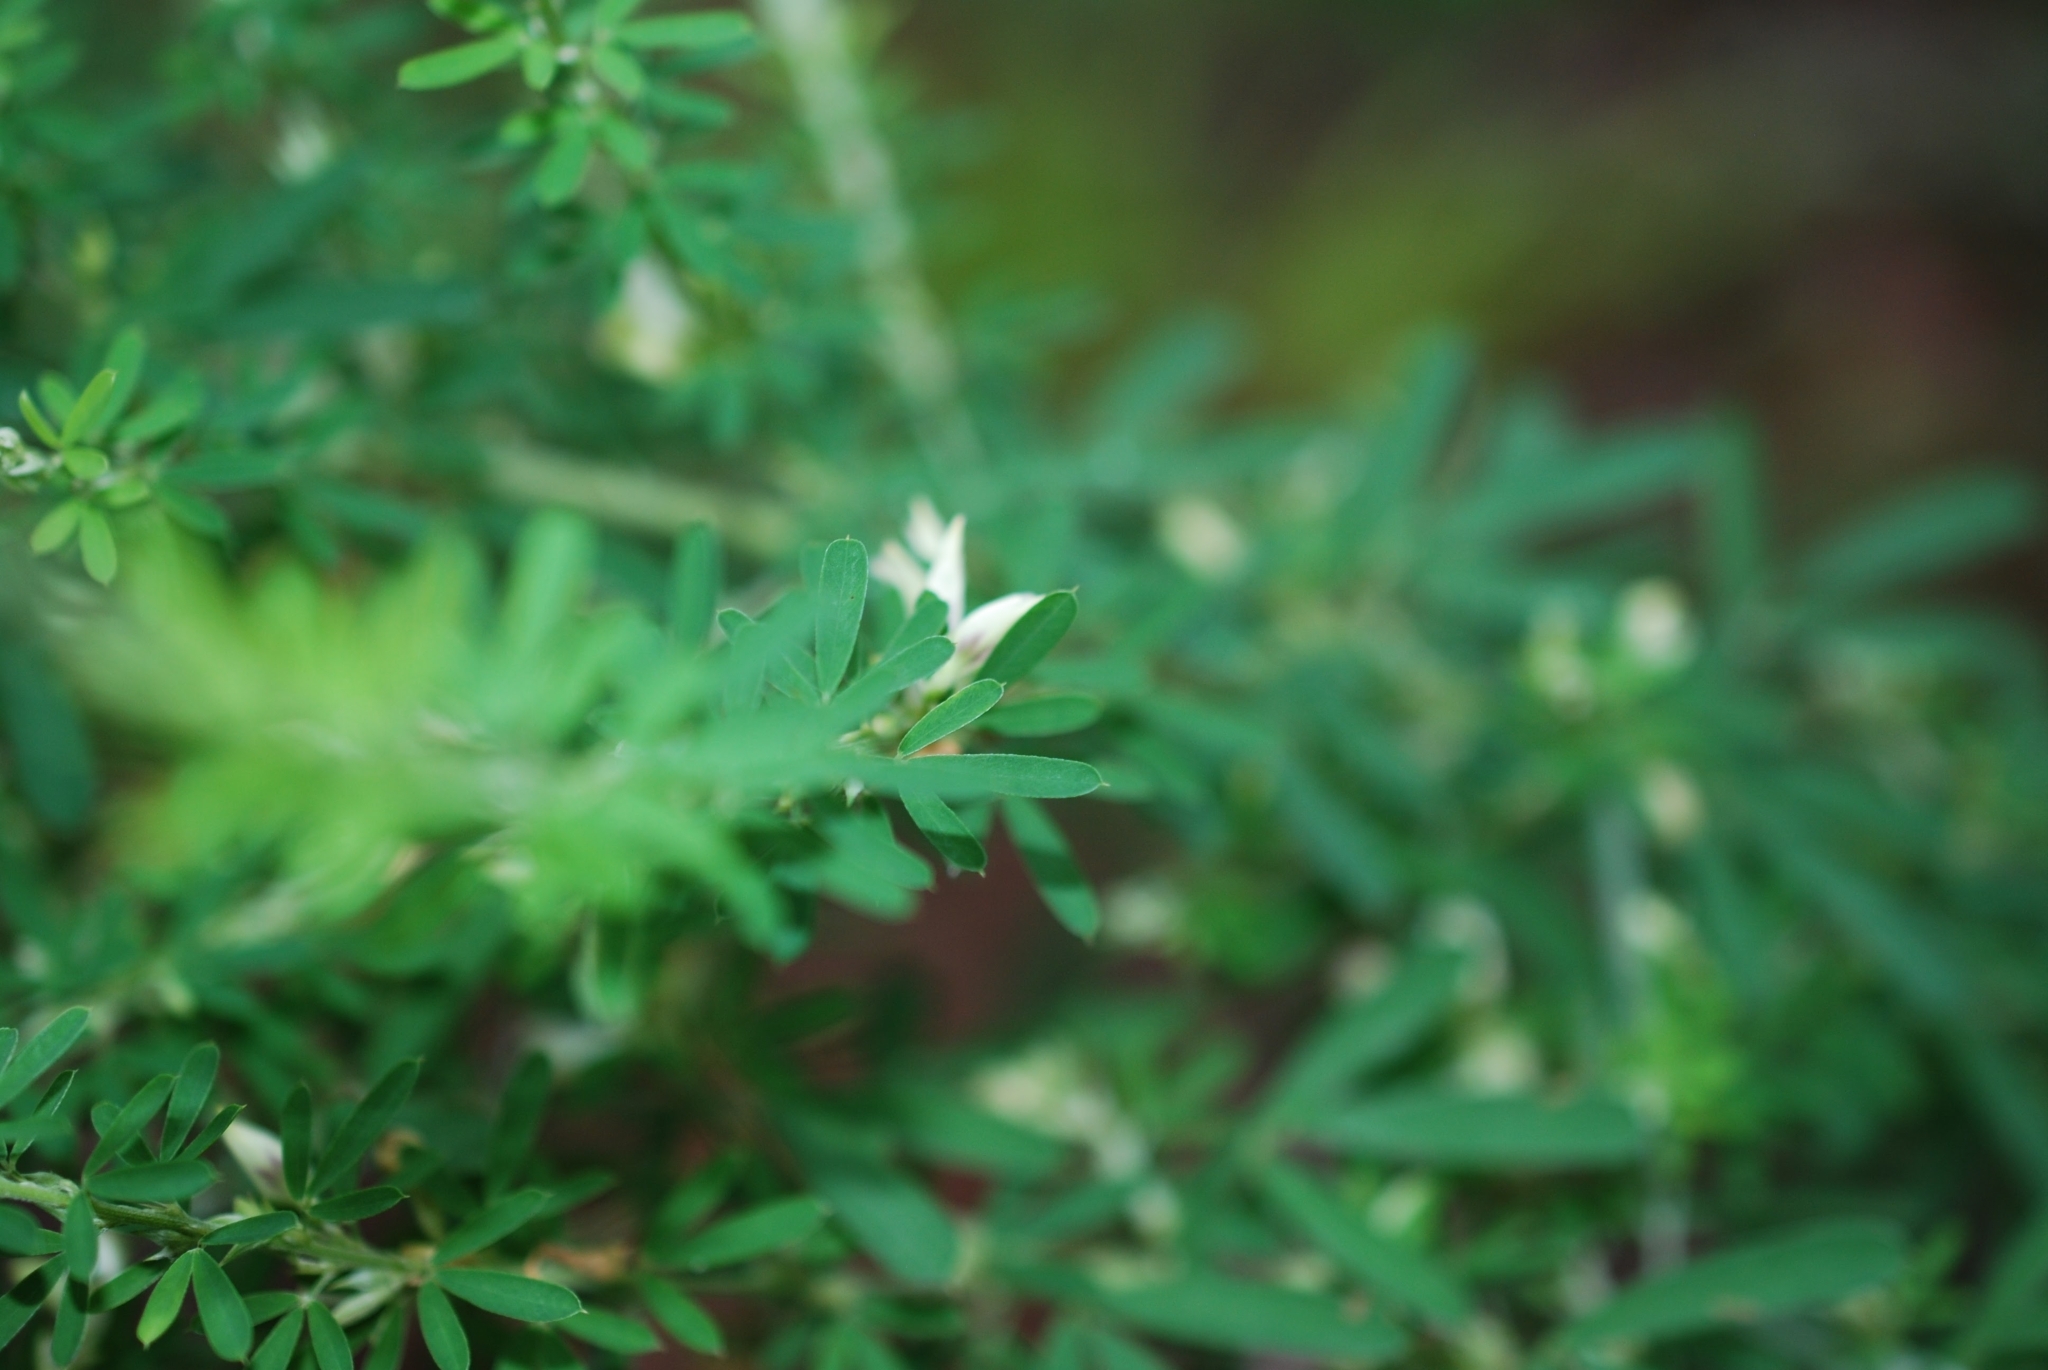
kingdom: Plantae
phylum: Tracheophyta
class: Magnoliopsida
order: Fabales
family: Fabaceae
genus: Lespedeza
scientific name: Lespedeza cuneata
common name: Chinese bush-clover
